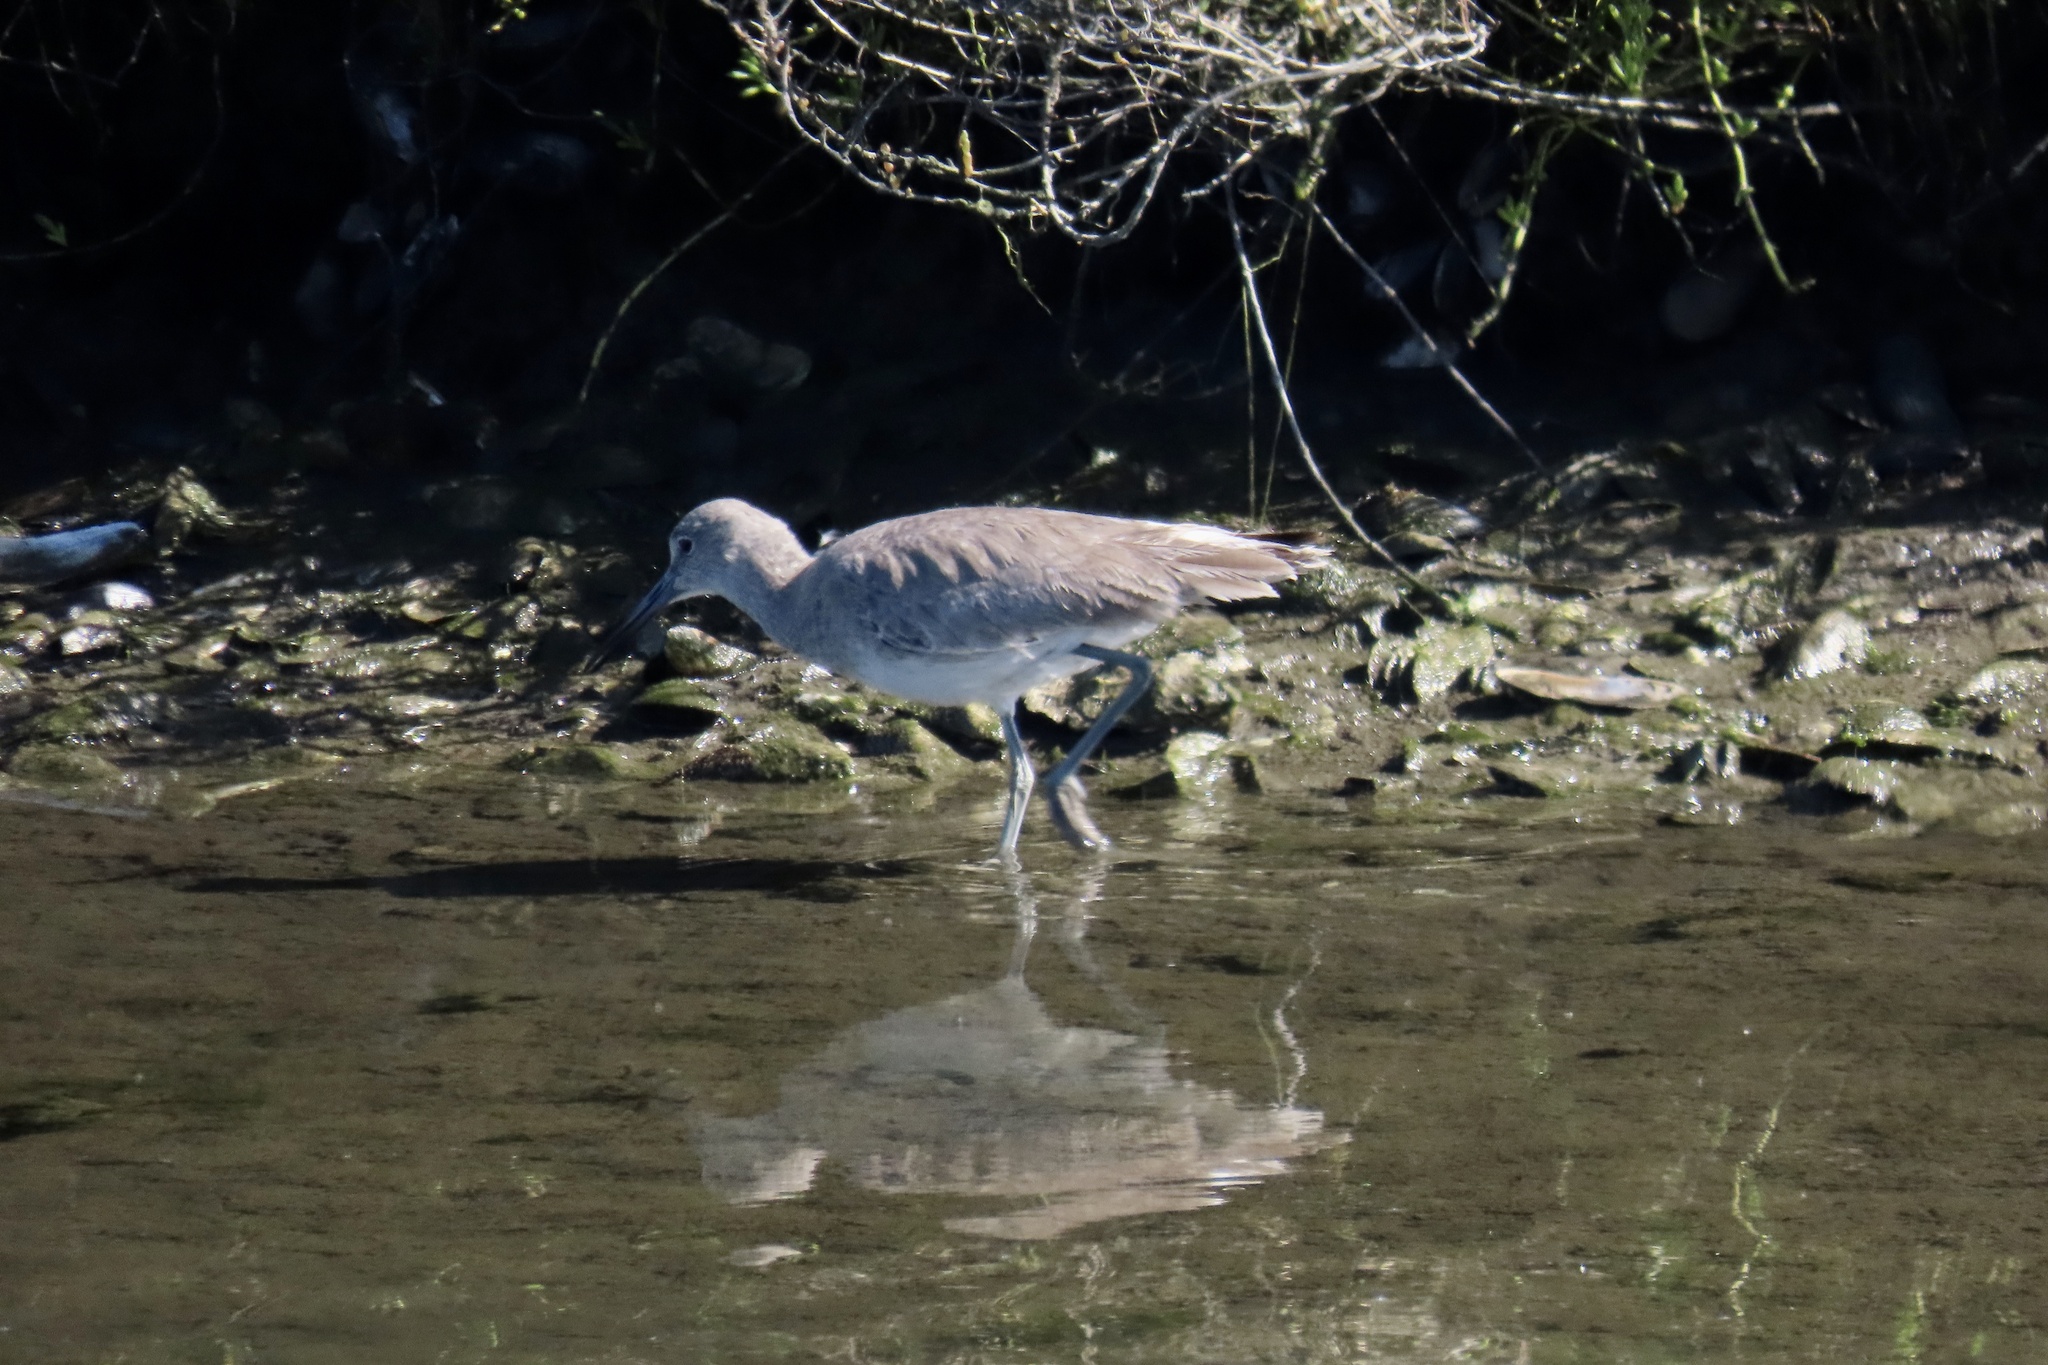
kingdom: Animalia
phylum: Chordata
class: Aves
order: Charadriiformes
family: Scolopacidae
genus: Tringa
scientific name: Tringa semipalmata
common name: Willet
